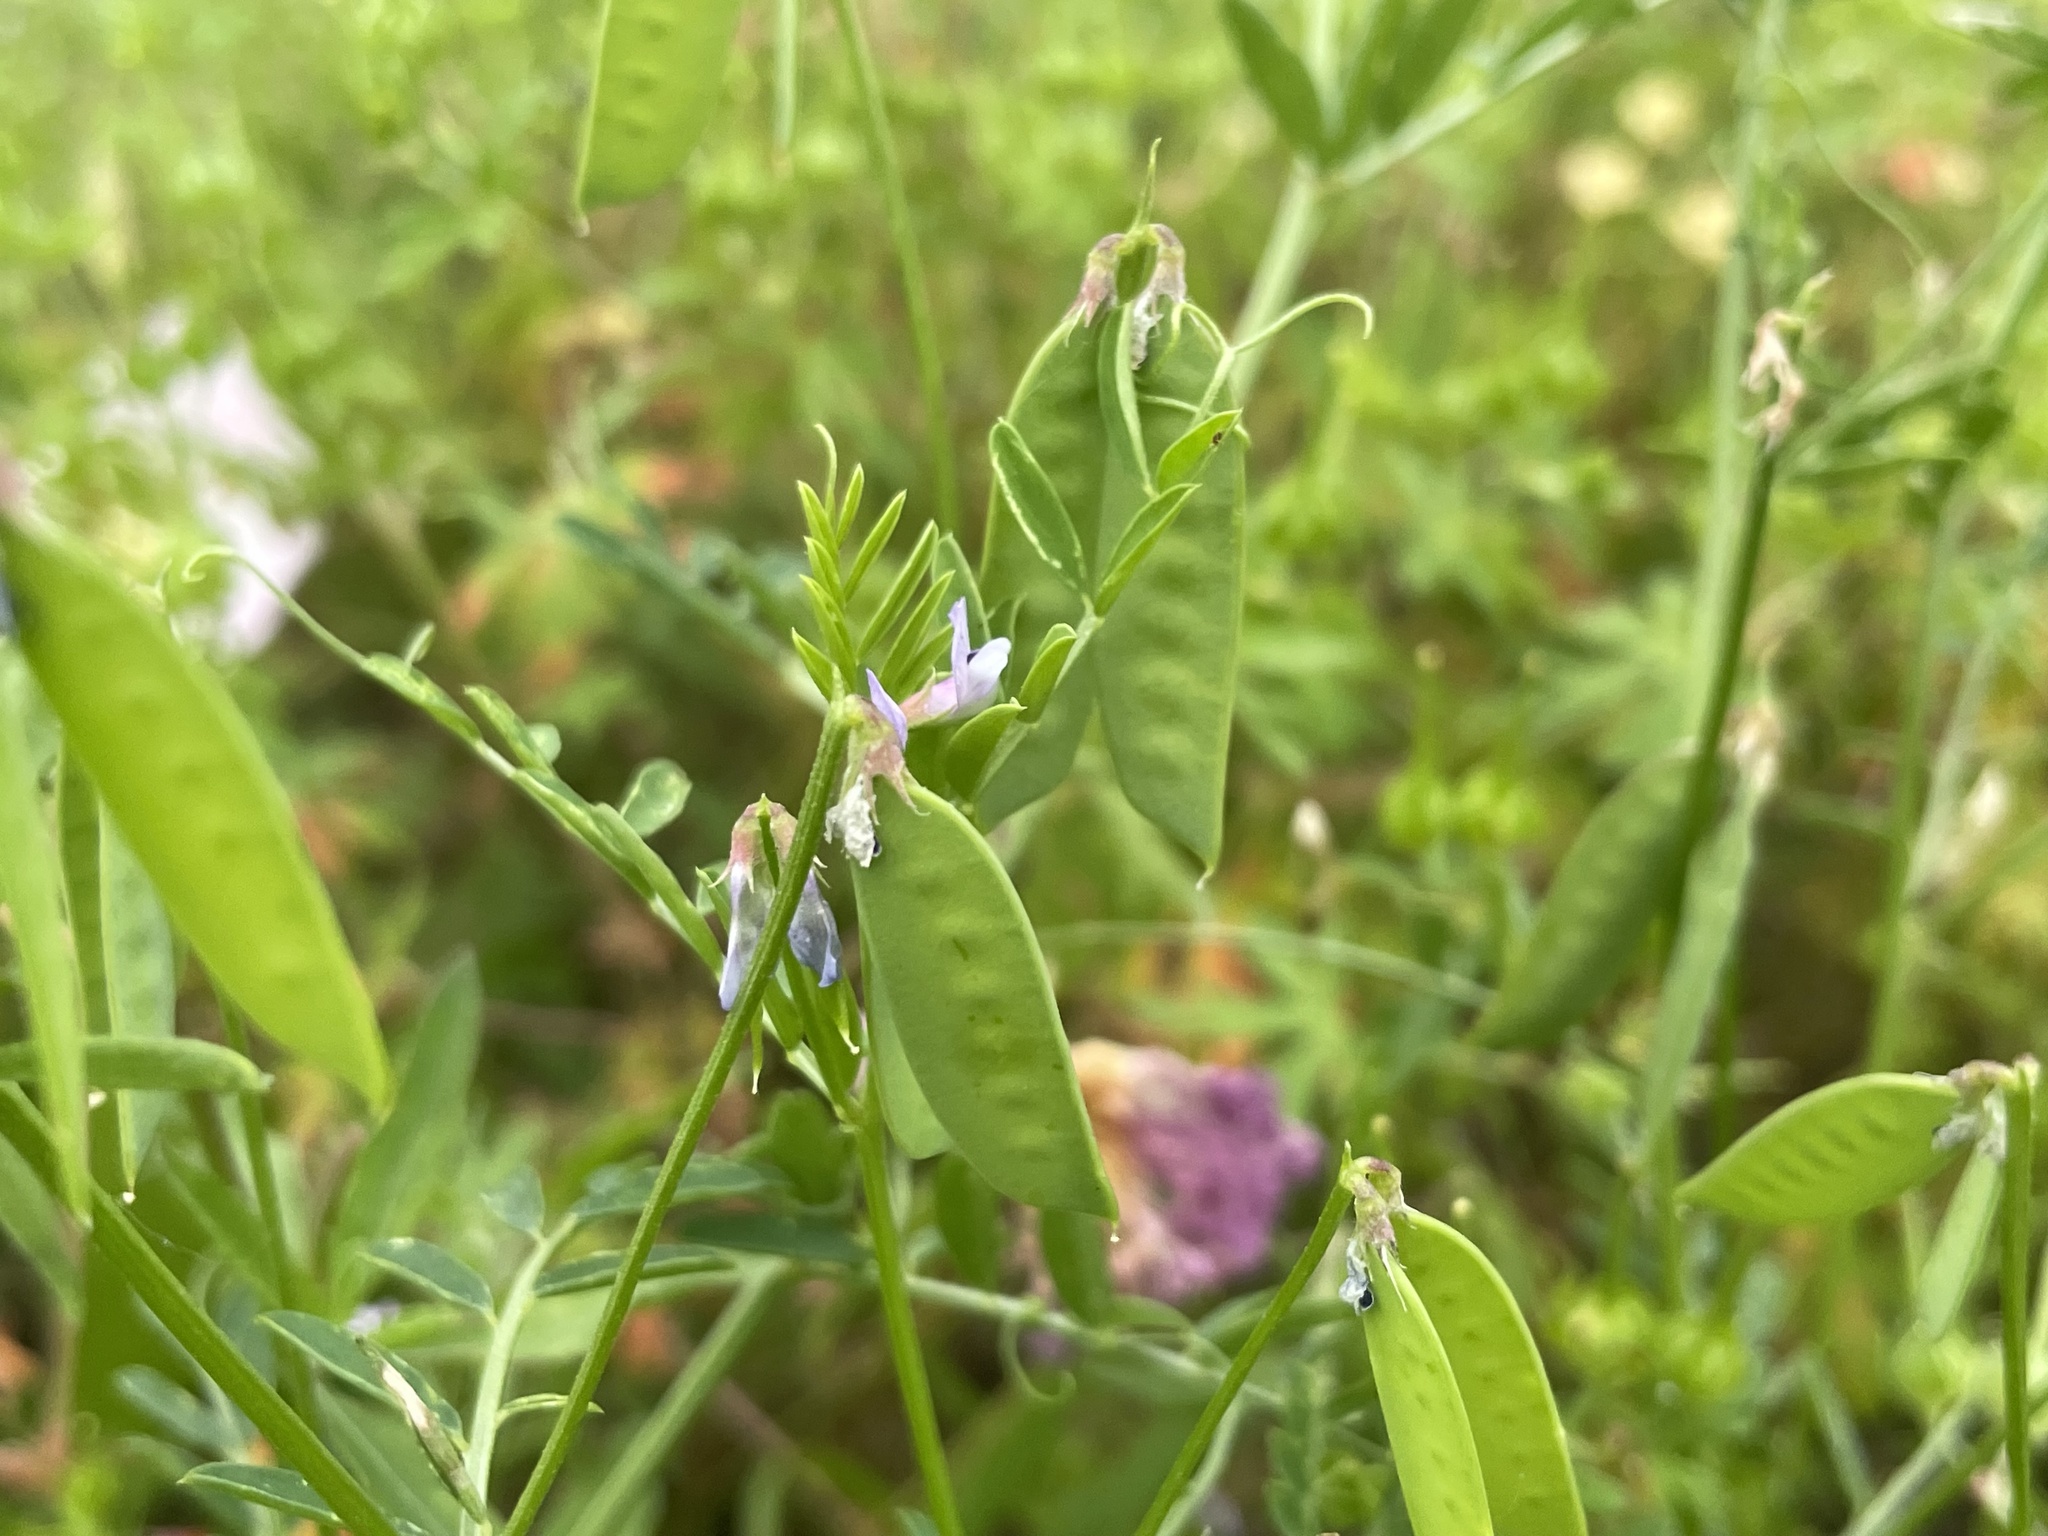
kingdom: Plantae
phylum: Tracheophyta
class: Magnoliopsida
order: Fabales
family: Fabaceae
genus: Vicia
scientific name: Vicia ludoviciana
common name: Louisiana vetch
